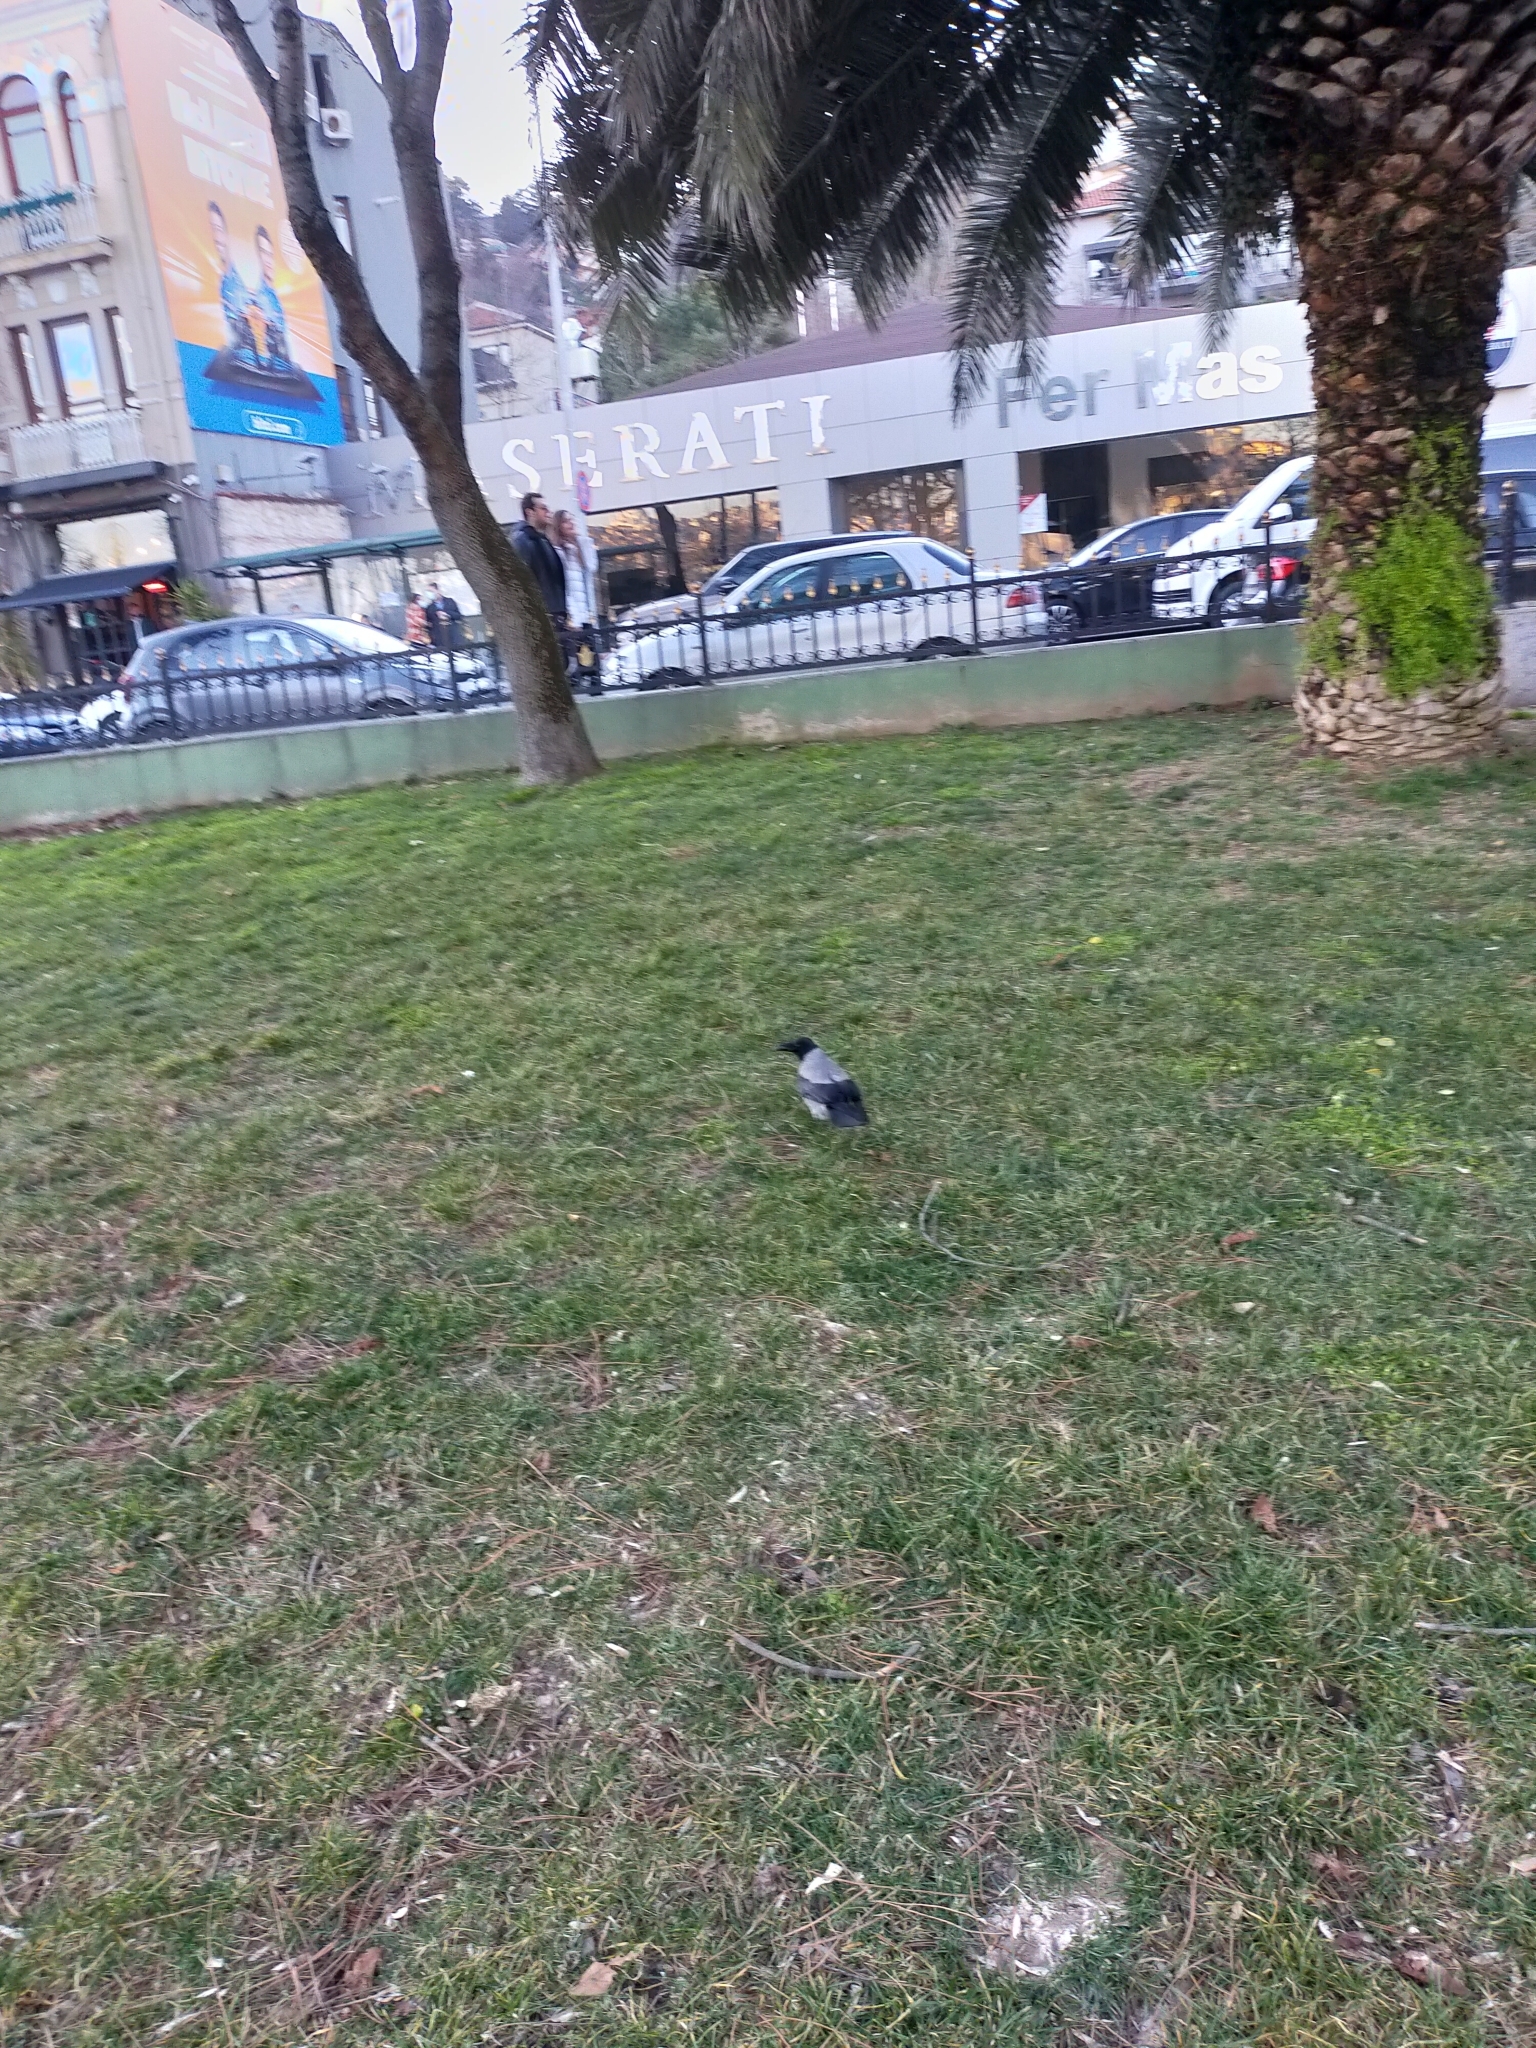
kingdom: Animalia
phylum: Chordata
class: Aves
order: Passeriformes
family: Corvidae
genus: Corvus
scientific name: Corvus cornix
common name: Hooded crow
